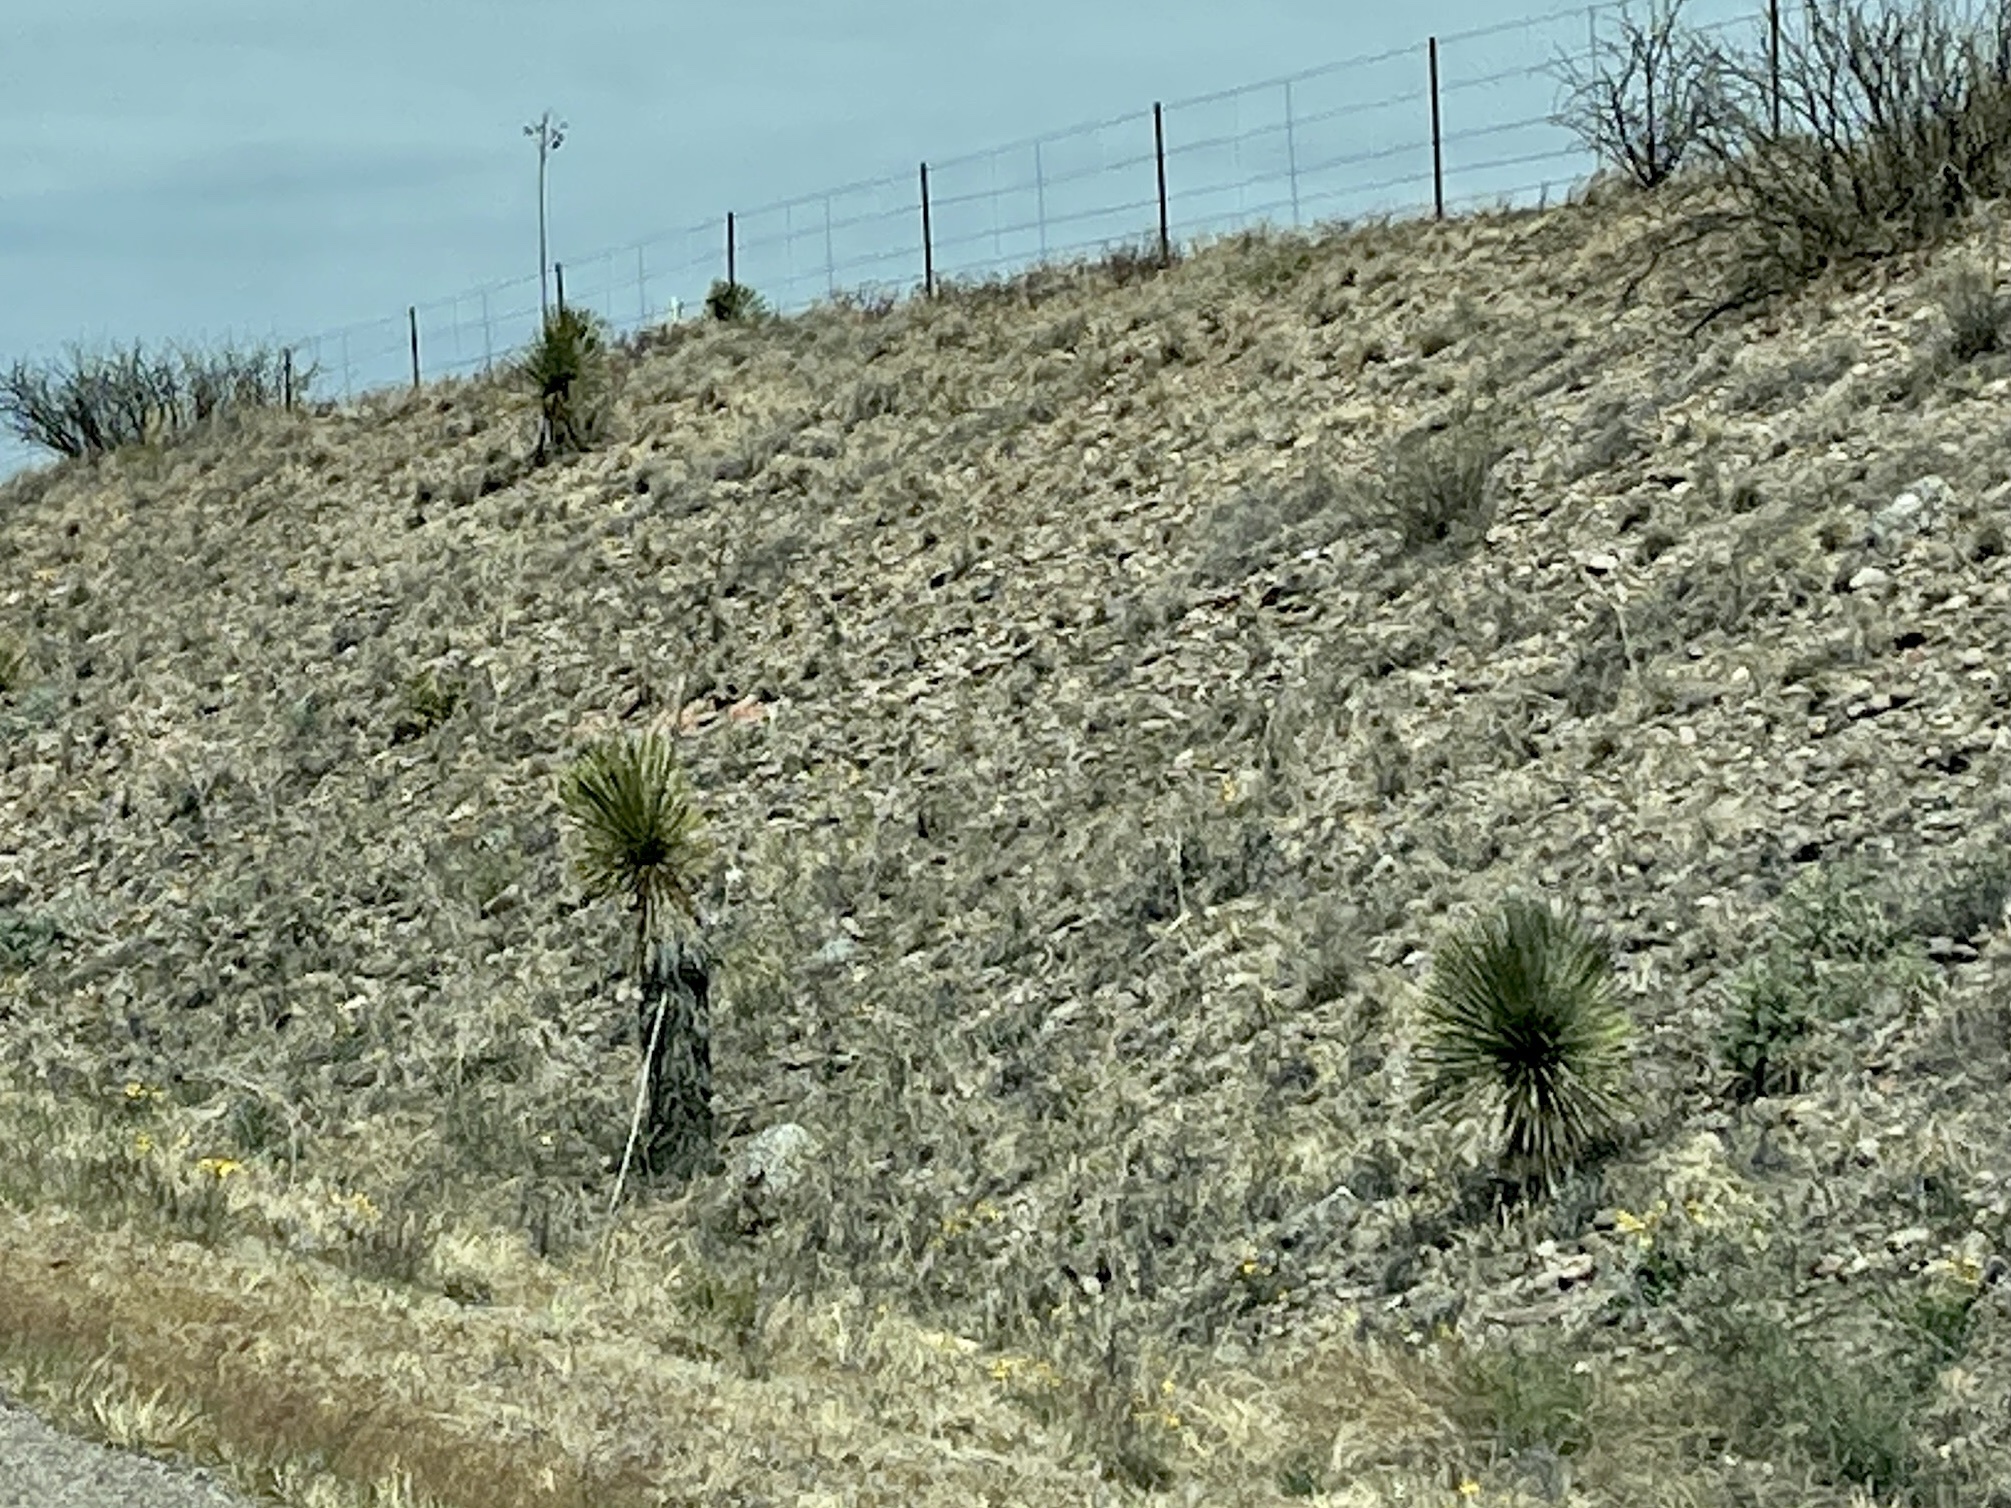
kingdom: Plantae
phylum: Tracheophyta
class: Liliopsida
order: Asparagales
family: Asparagaceae
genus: Yucca
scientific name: Yucca elata
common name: Palmella
